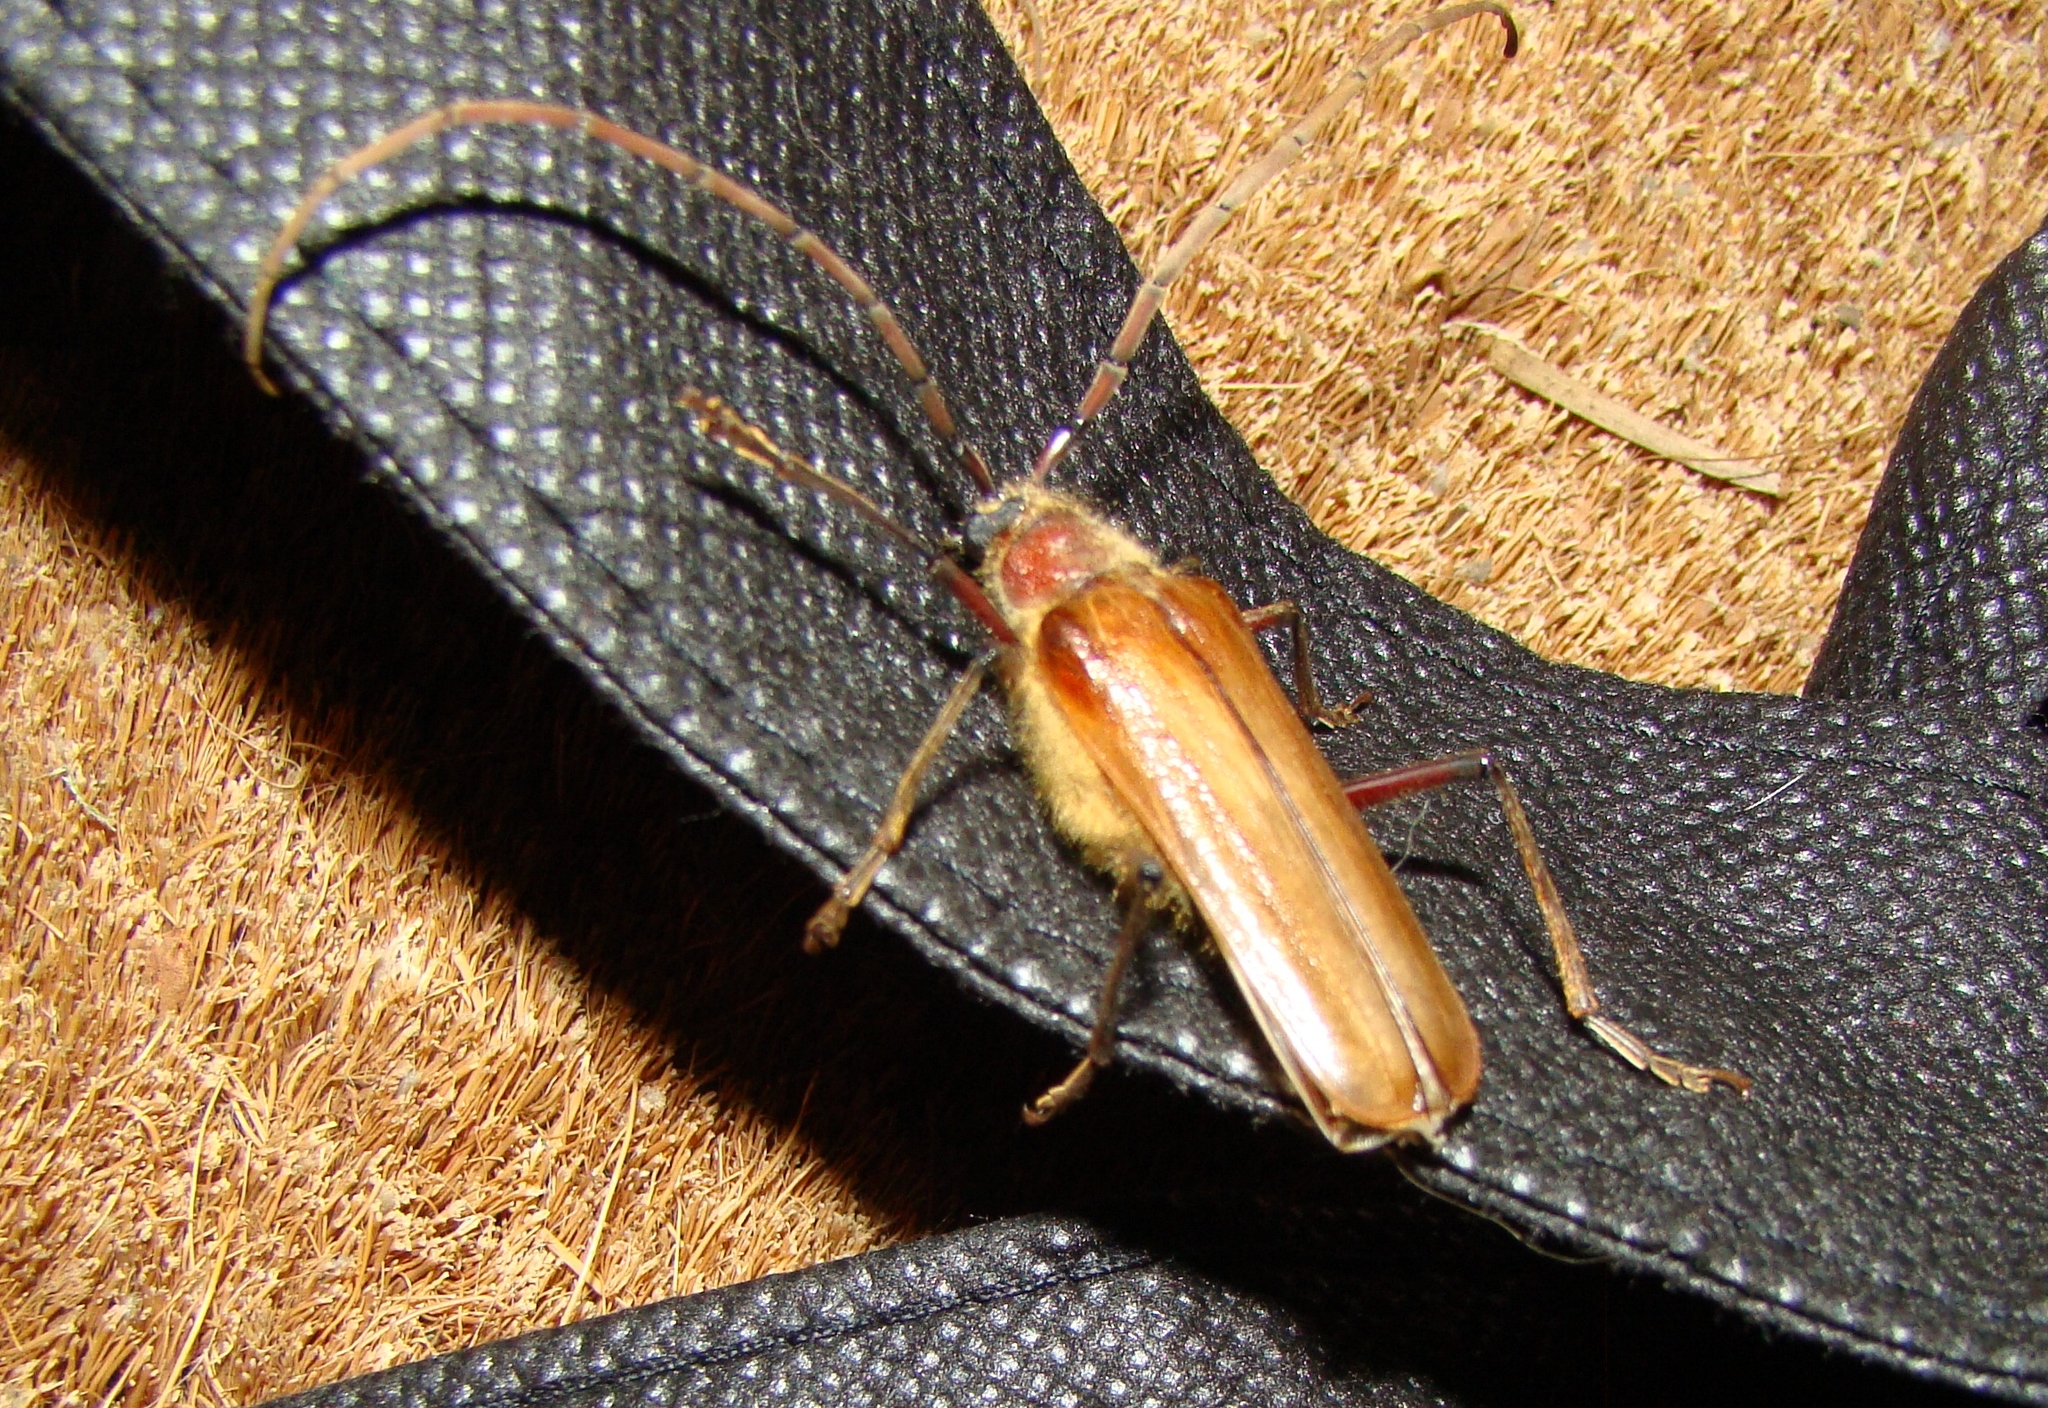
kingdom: Animalia
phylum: Arthropoda
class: Insecta
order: Coleoptera
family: Cerambycidae
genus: Ochrocydus
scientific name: Ochrocydus huttoni
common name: Kanuka longhorn
